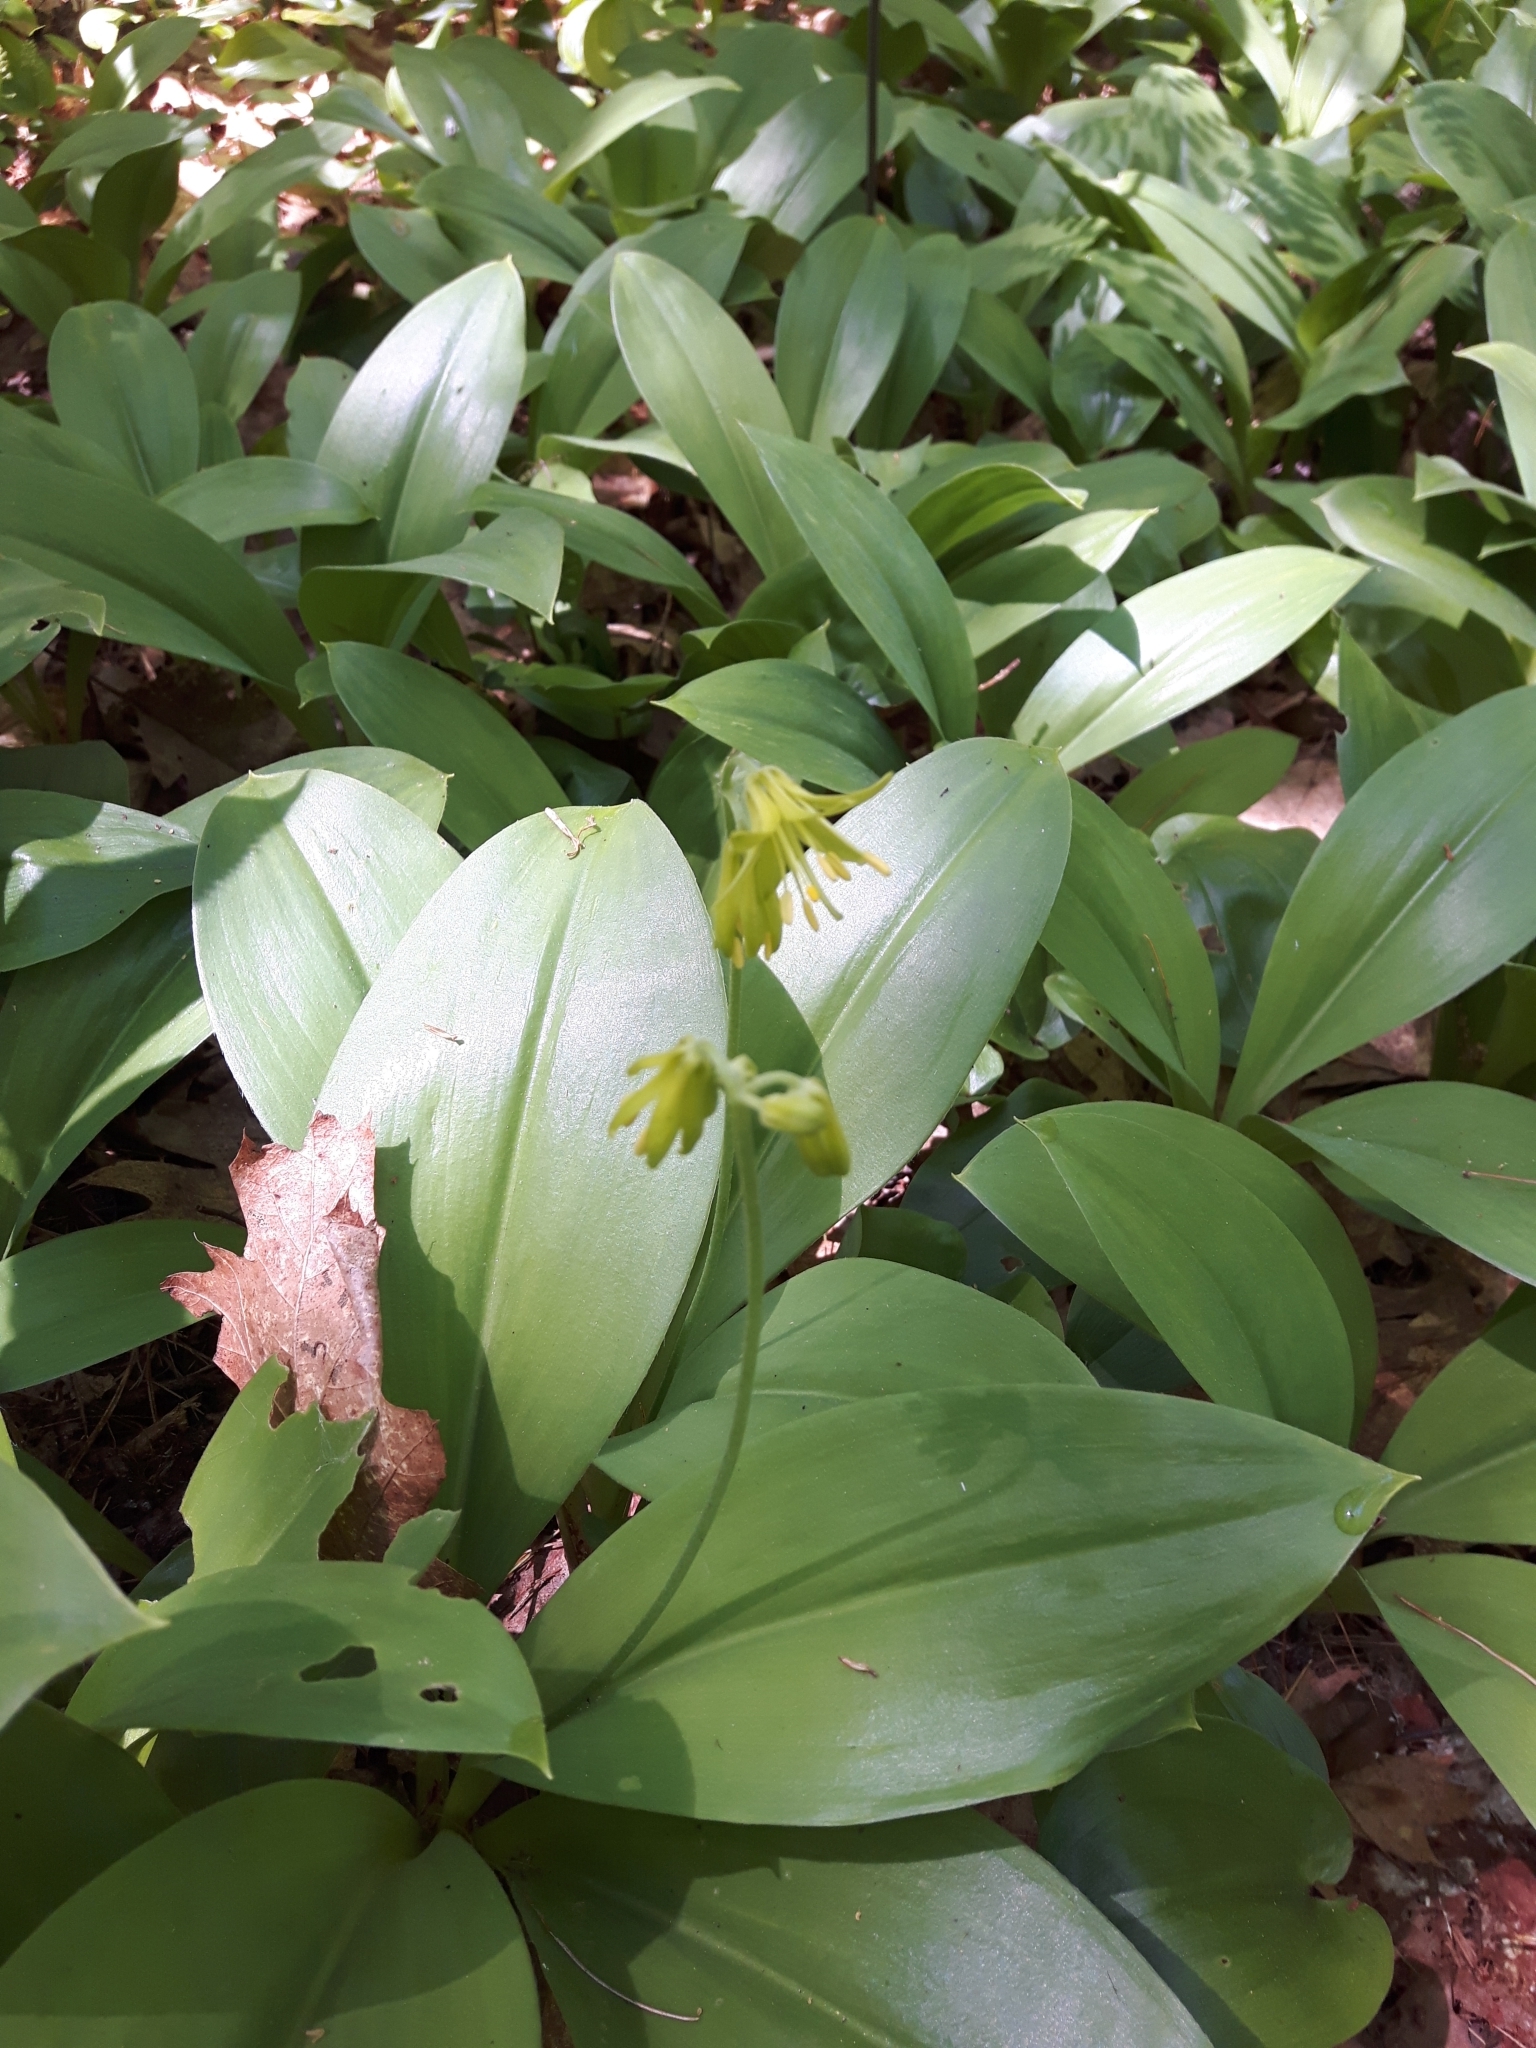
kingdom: Plantae
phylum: Tracheophyta
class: Liliopsida
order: Liliales
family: Liliaceae
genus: Clintonia
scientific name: Clintonia borealis
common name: Yellow clintonia
